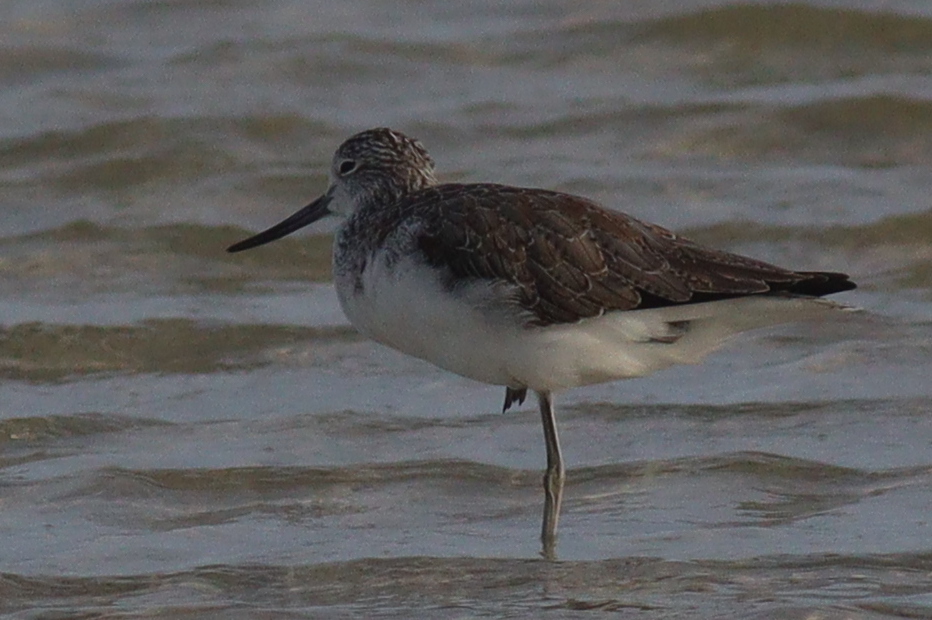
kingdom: Animalia
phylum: Chordata
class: Aves
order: Charadriiformes
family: Scolopacidae
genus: Tringa
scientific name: Tringa nebularia
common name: Common greenshank
